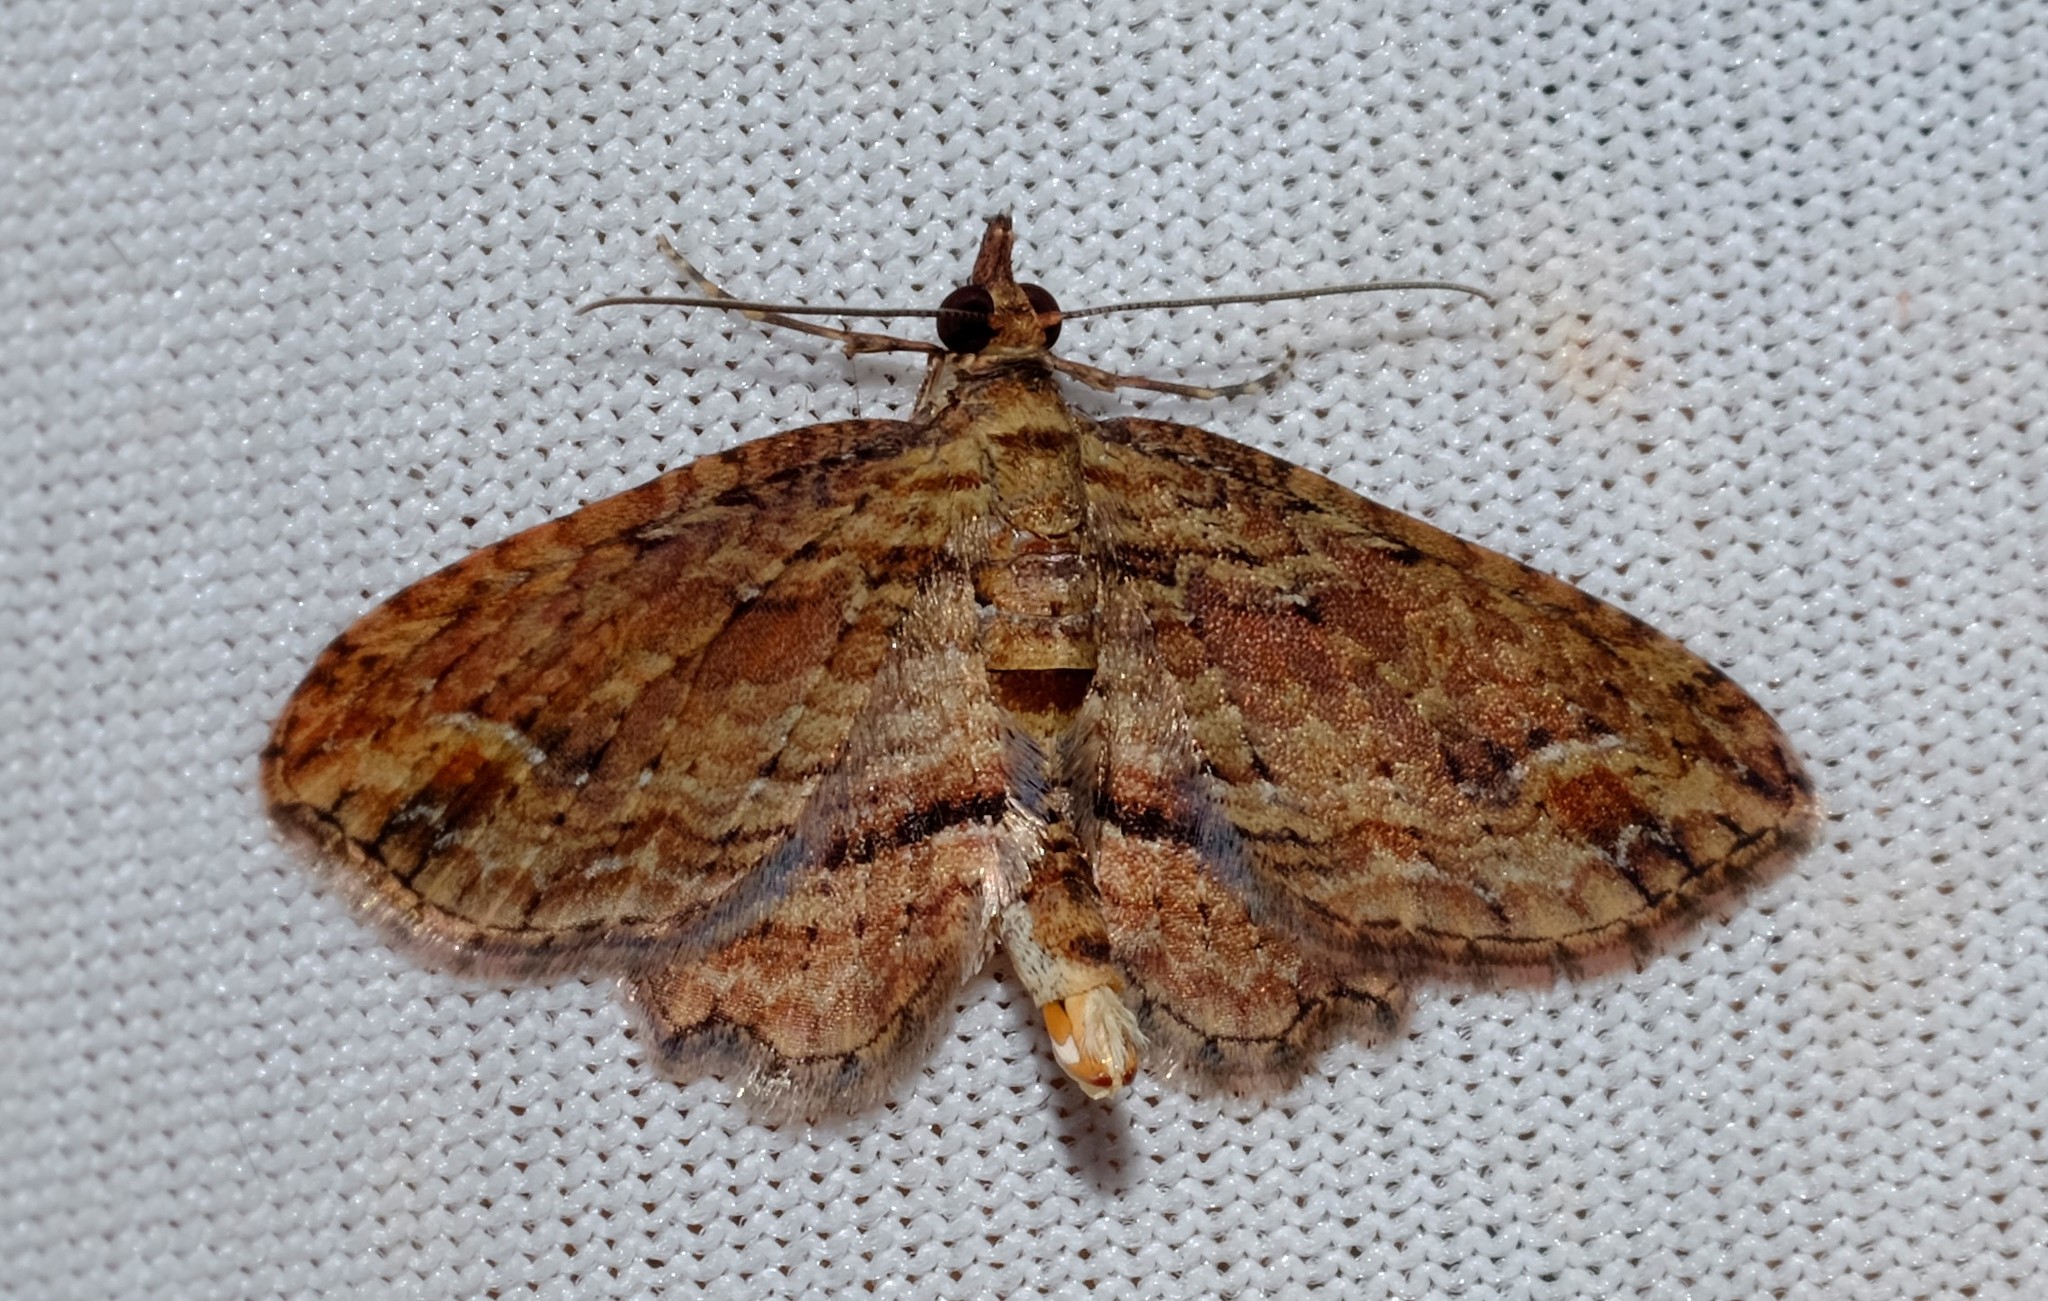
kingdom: Animalia
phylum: Arthropoda
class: Insecta
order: Lepidoptera
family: Geometridae
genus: Chloroclystis
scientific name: Chloroclystis filata
